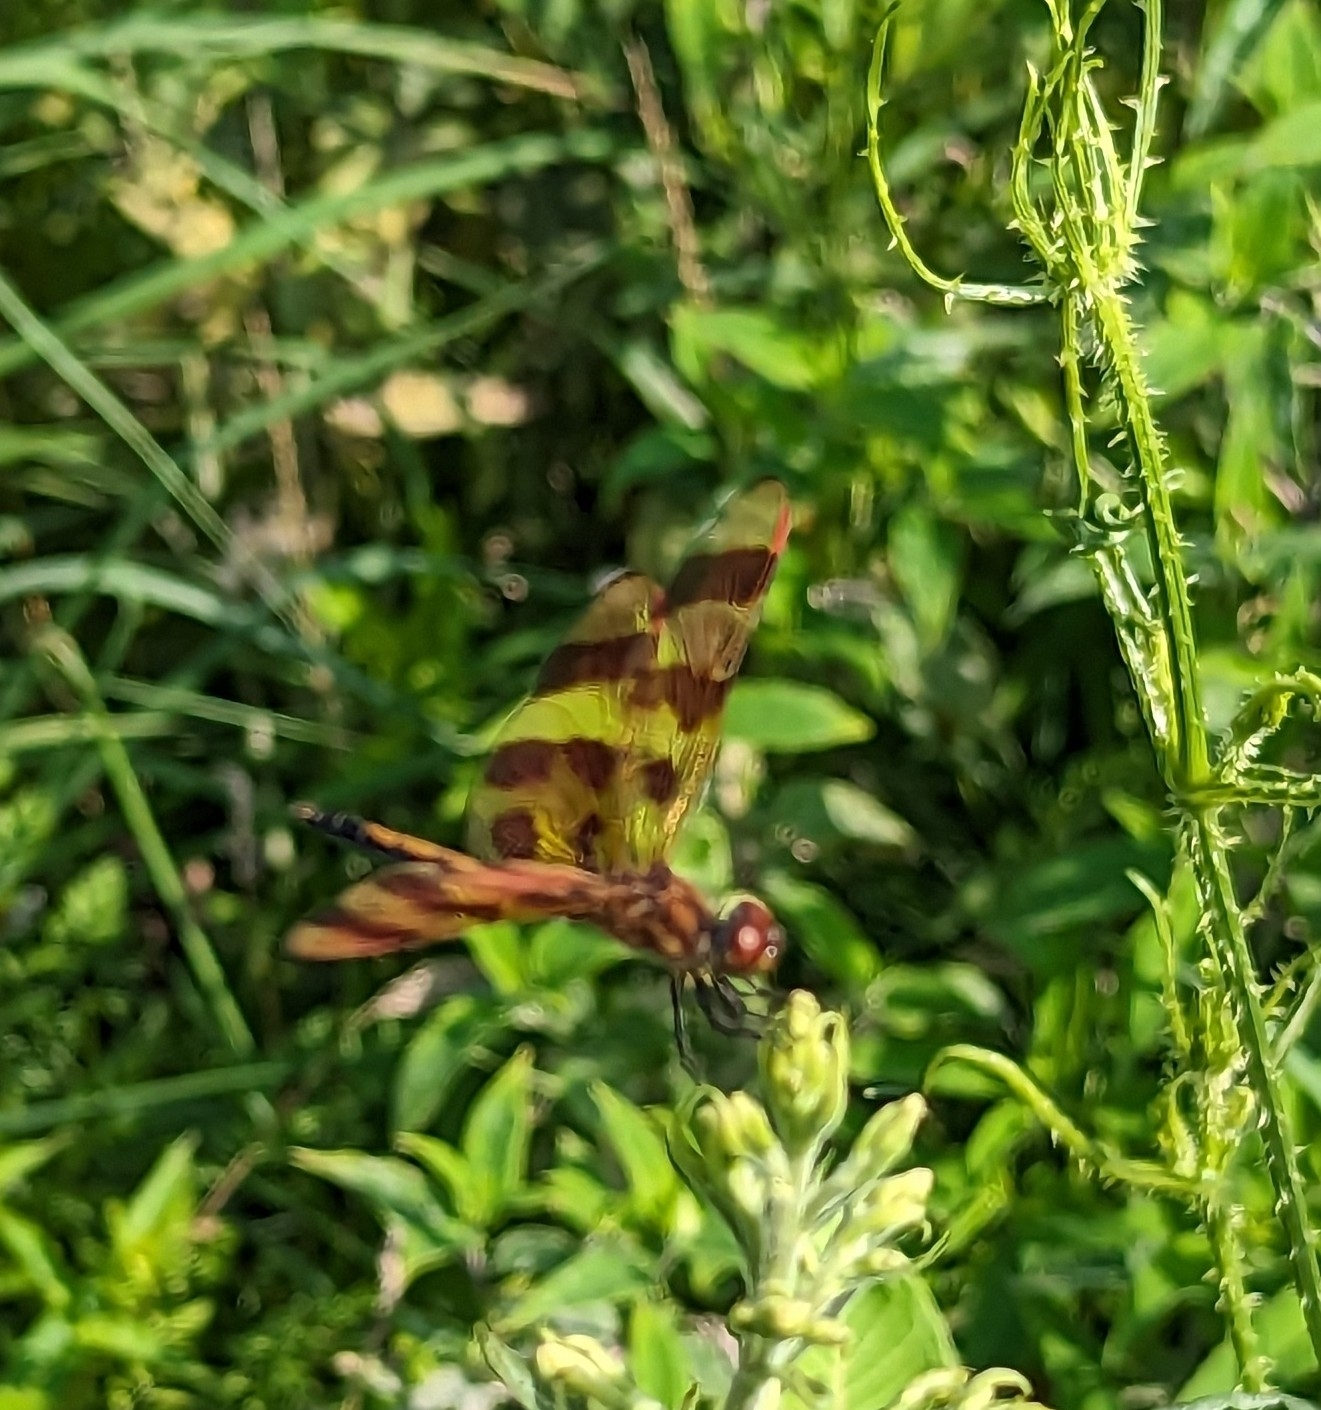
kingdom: Animalia
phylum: Arthropoda
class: Insecta
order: Odonata
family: Libellulidae
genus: Celithemis
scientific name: Celithemis eponina
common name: Halloween pennant
